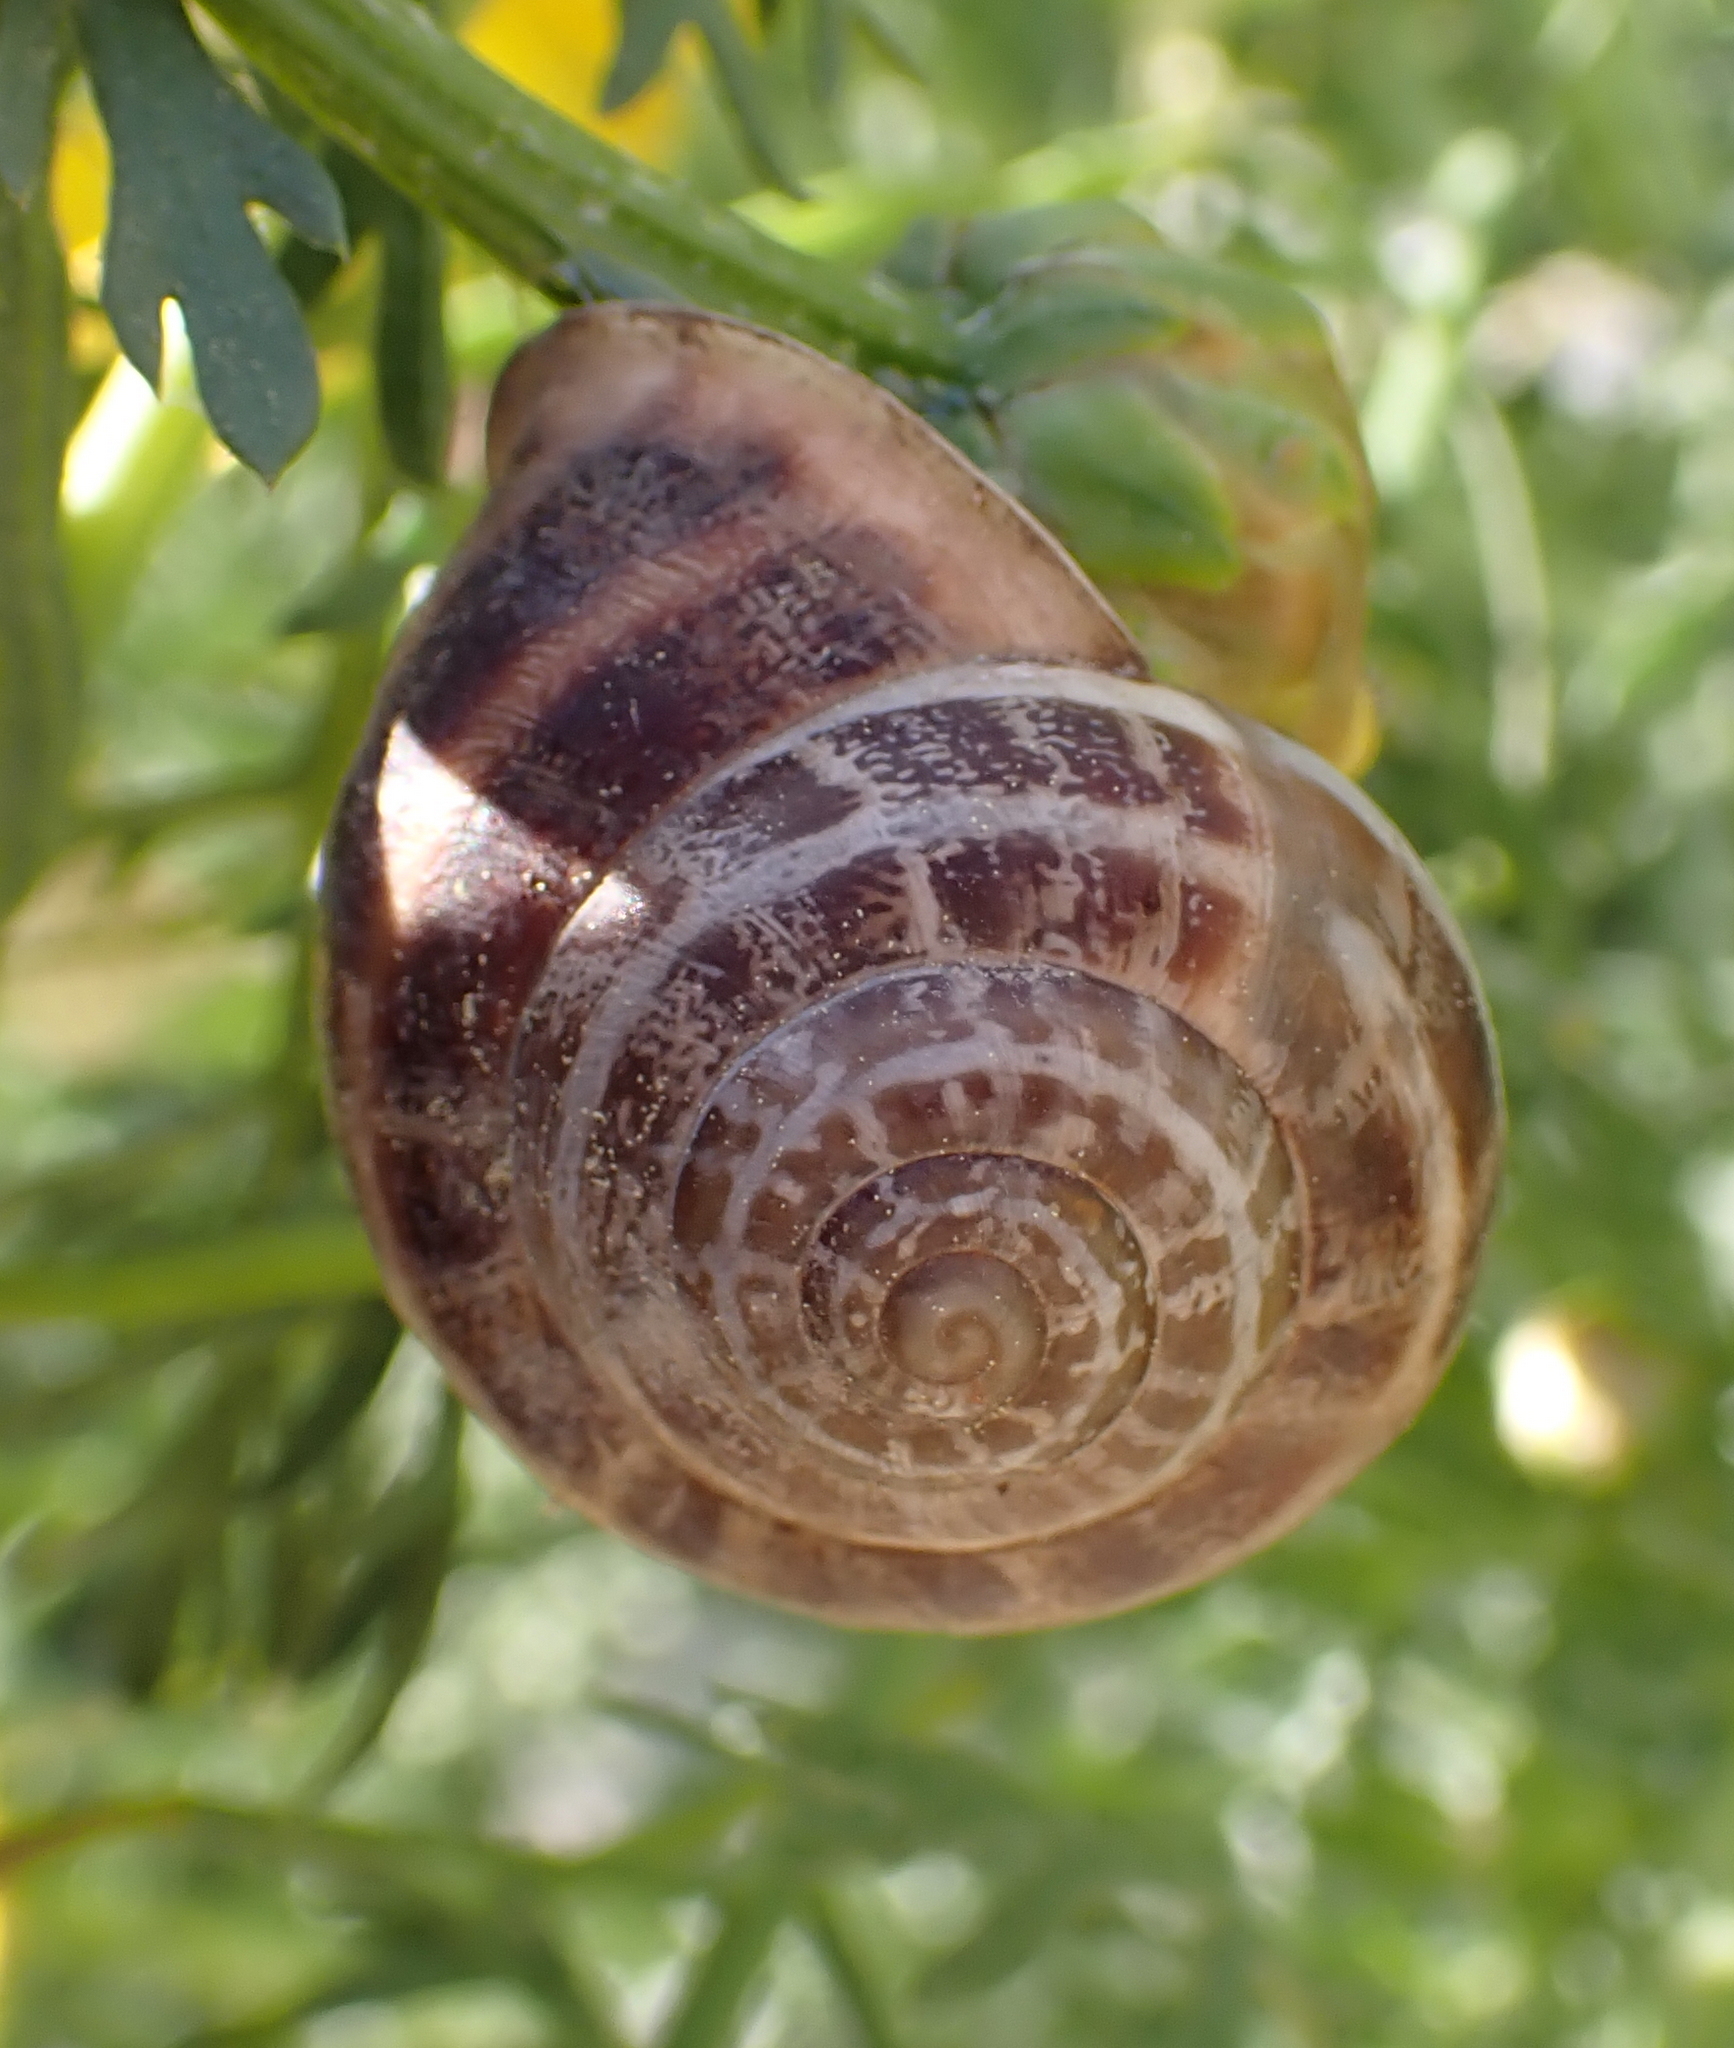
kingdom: Animalia
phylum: Mollusca
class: Gastropoda
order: Stylommatophora
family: Helicidae
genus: Eobania
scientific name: Eobania vermiculata
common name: Chocolateband snail
